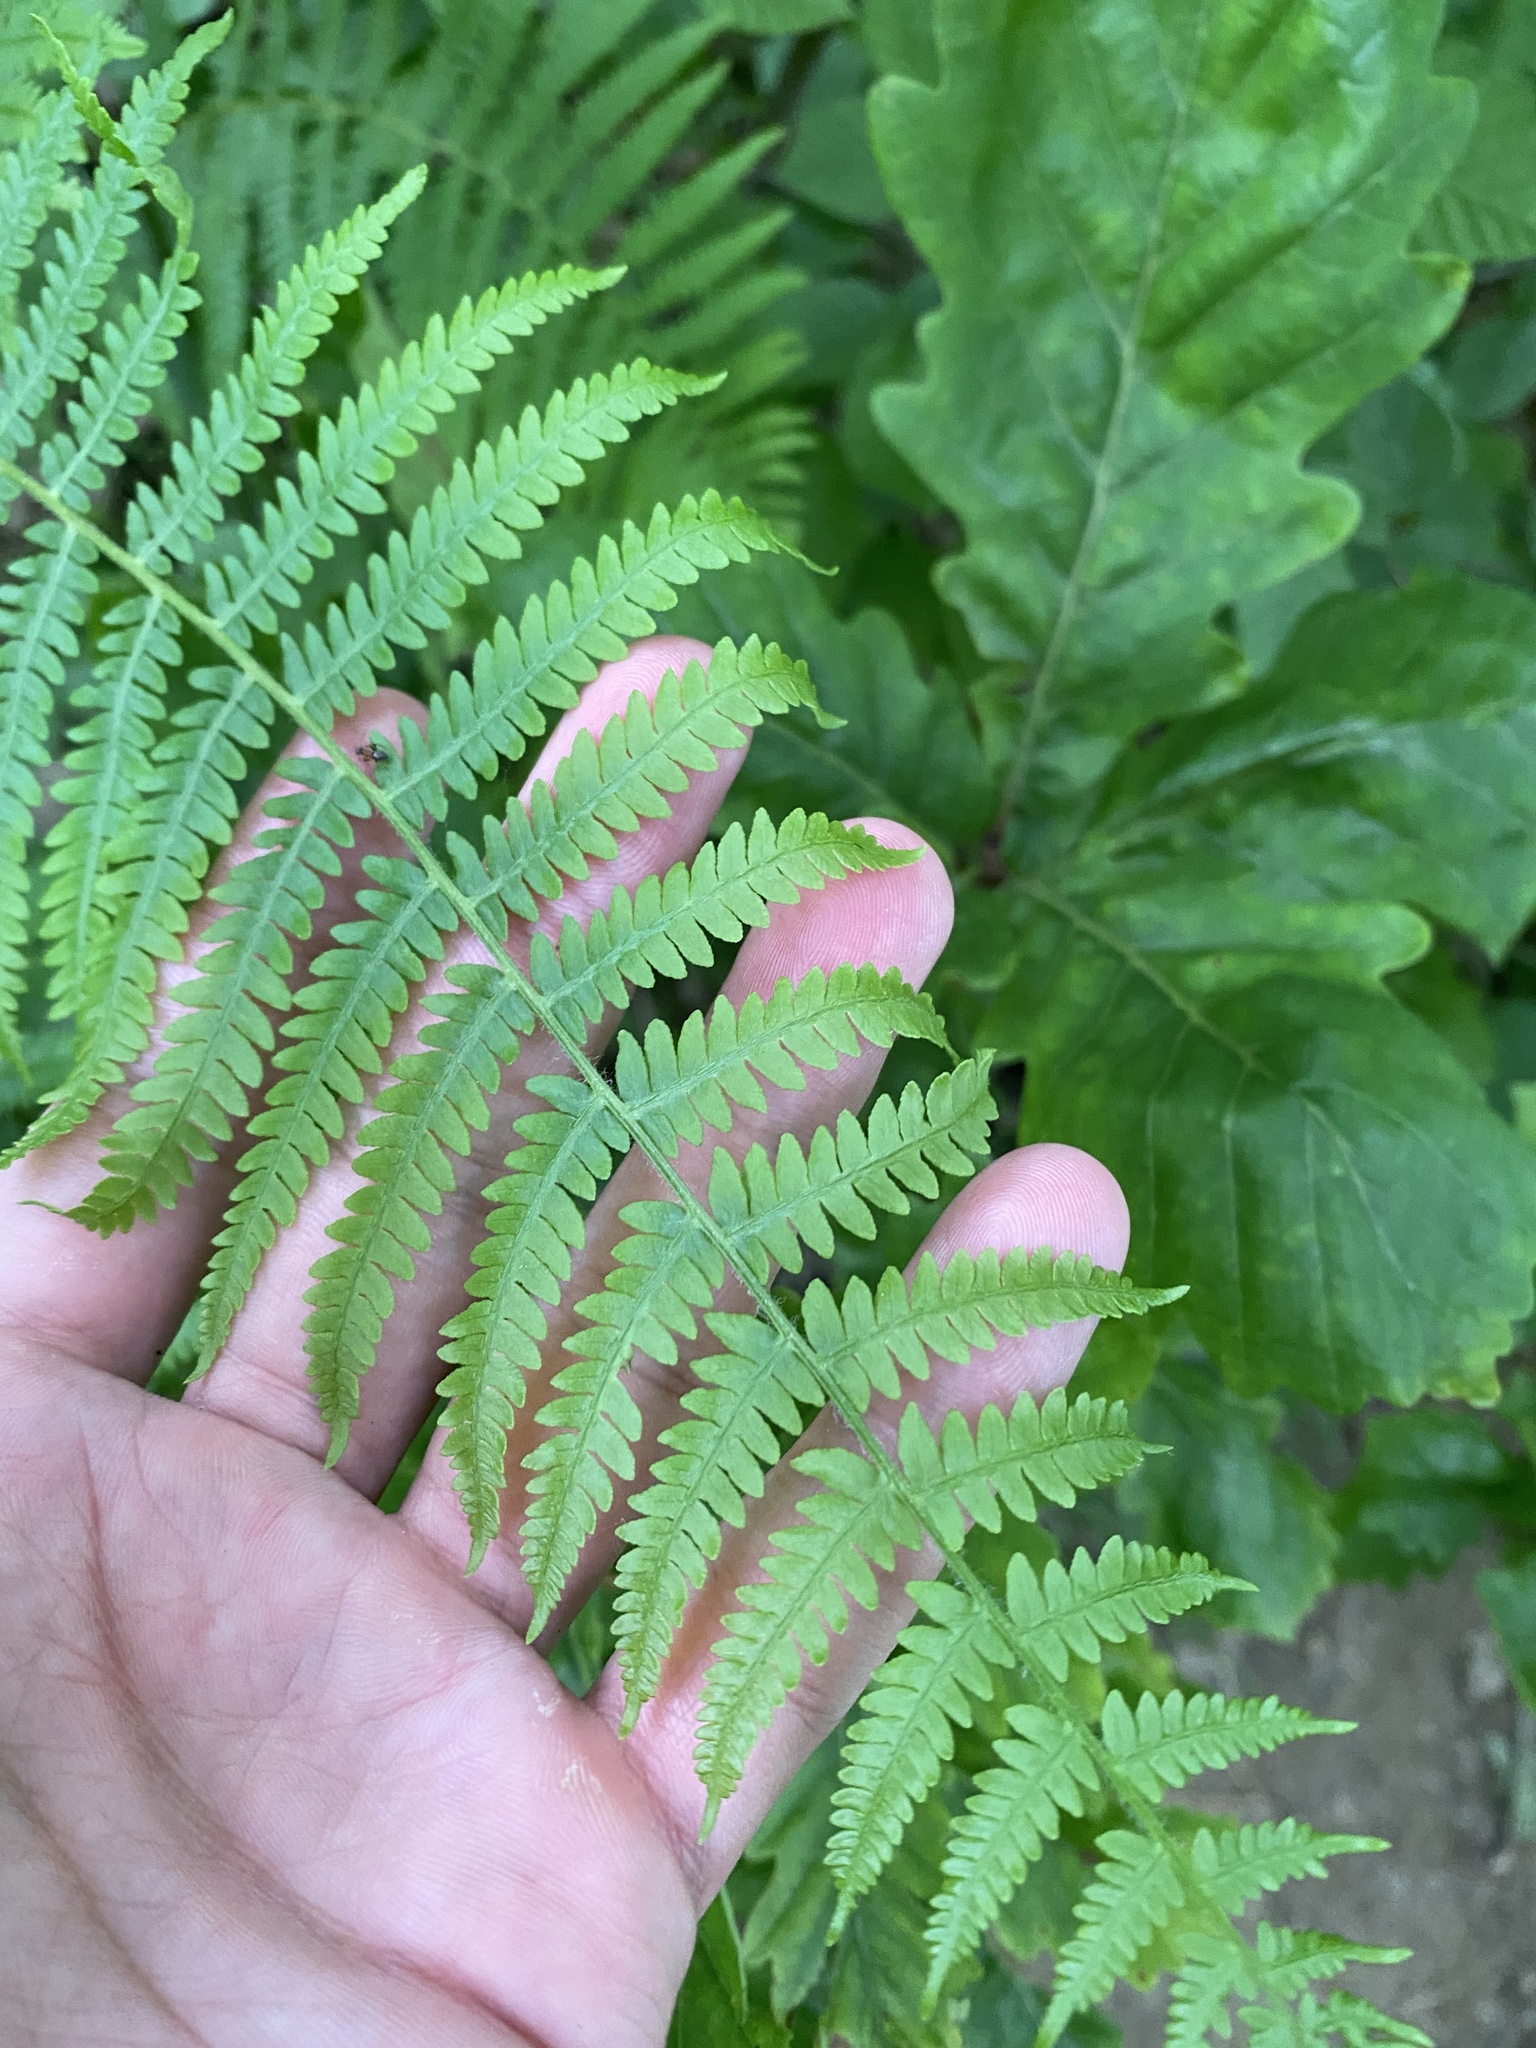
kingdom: Plantae
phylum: Tracheophyta
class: Polypodiopsida
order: Polypodiales
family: Dennstaedtiaceae
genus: Pteridium
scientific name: Pteridium tauricum
